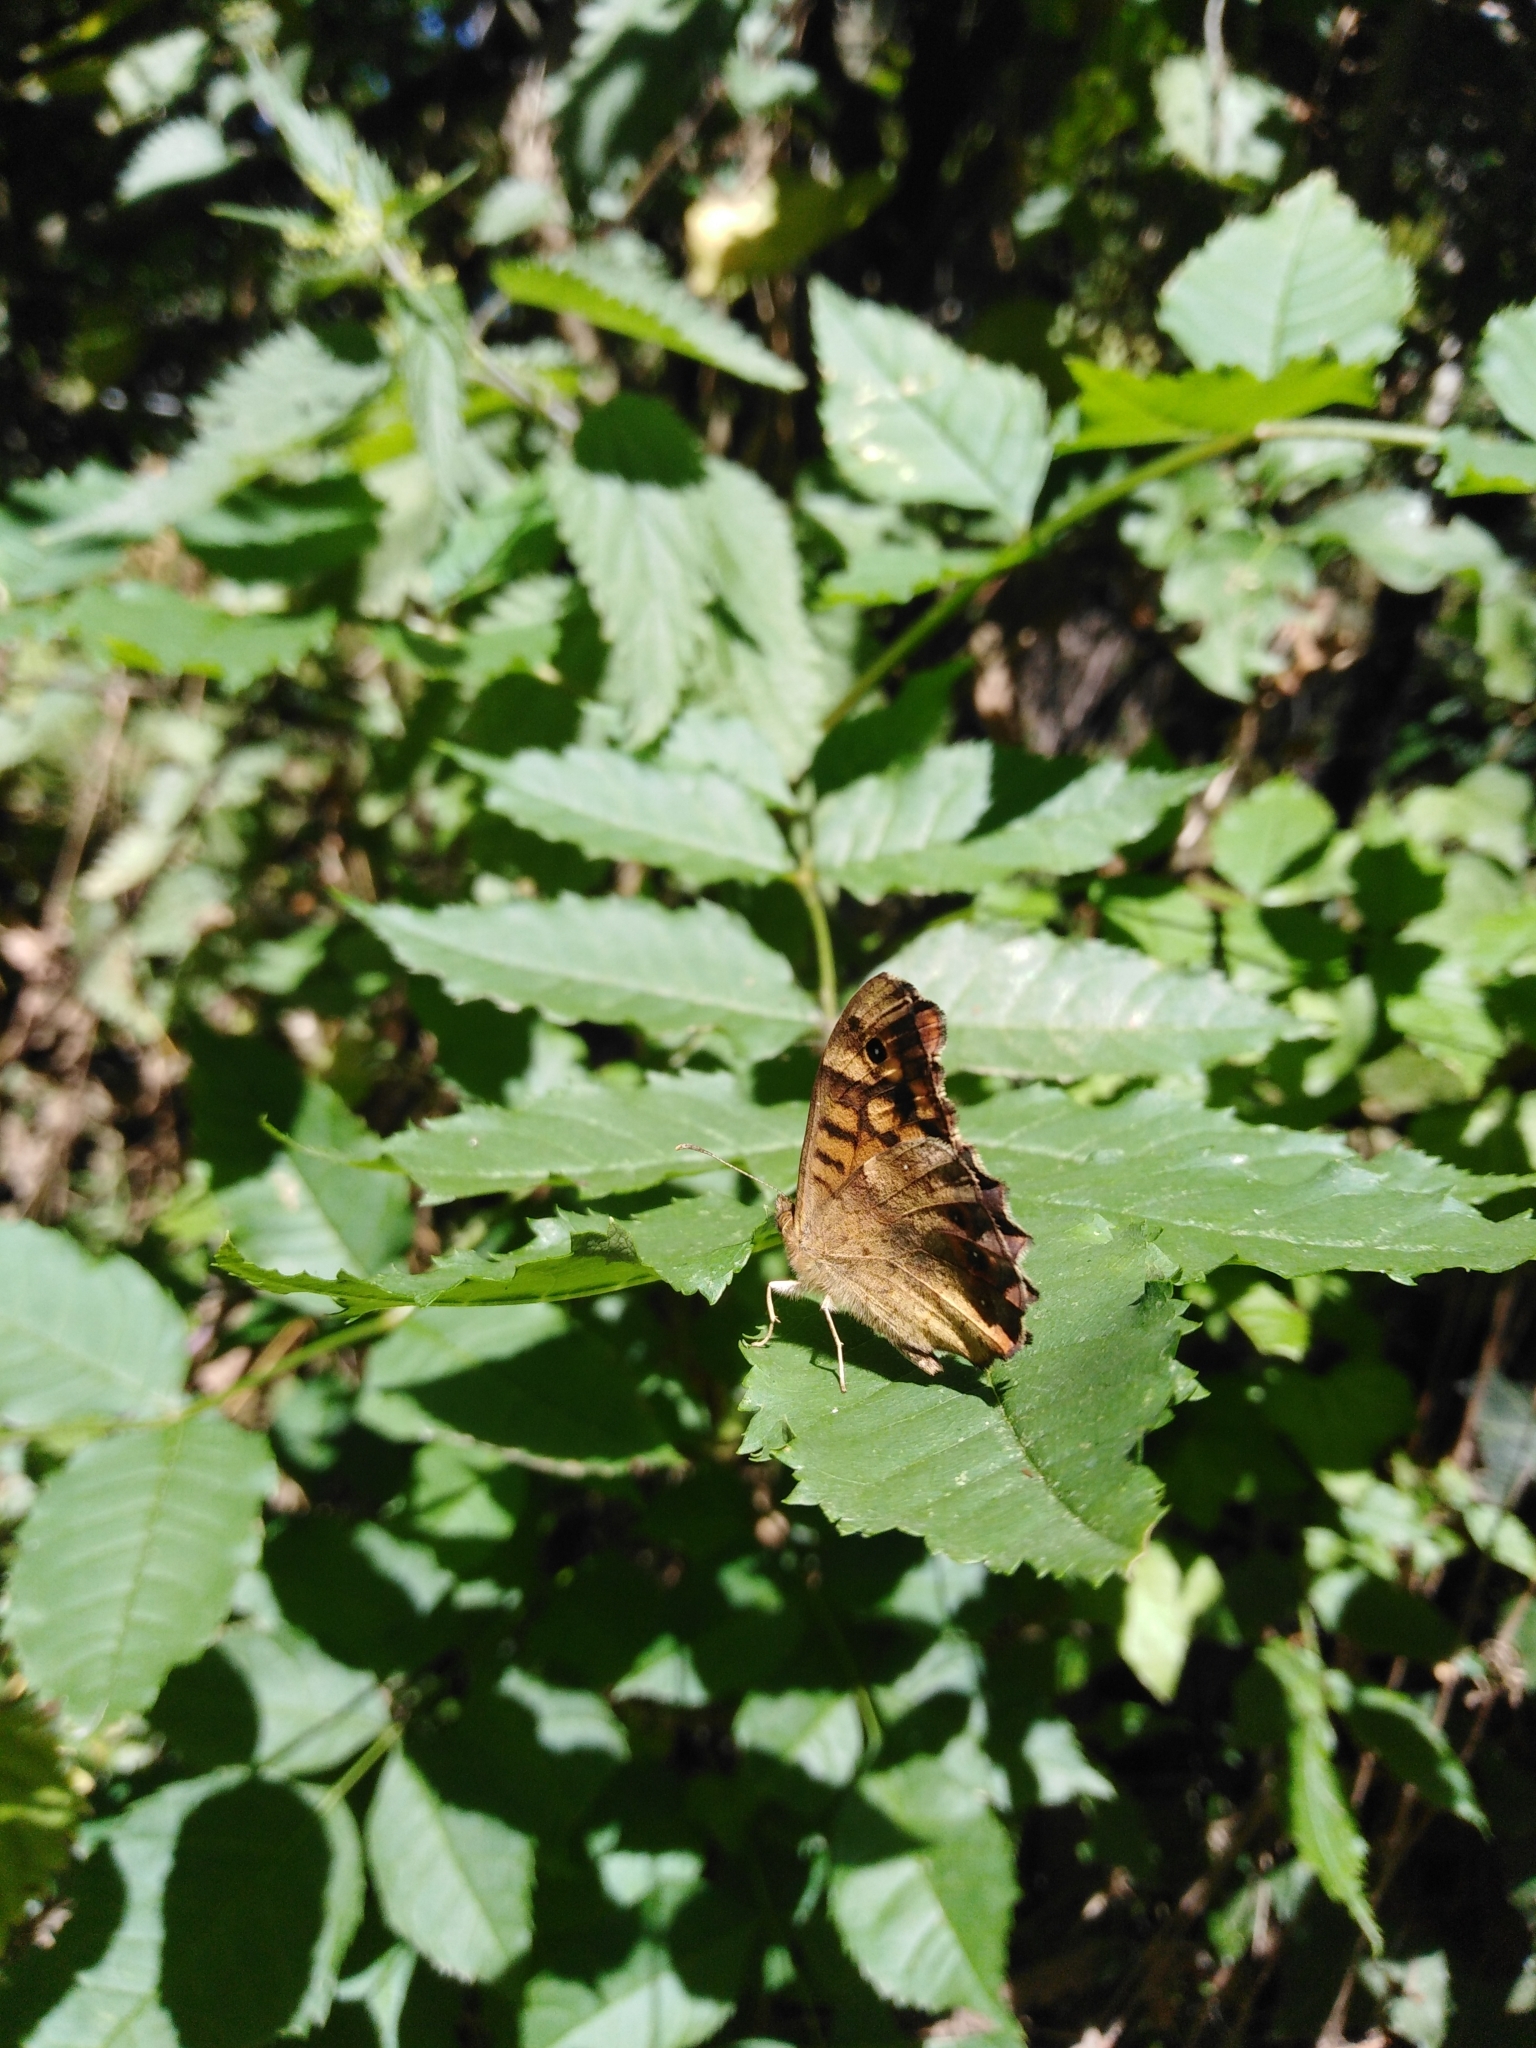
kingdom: Animalia
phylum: Arthropoda
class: Insecta
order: Lepidoptera
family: Nymphalidae
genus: Pararge
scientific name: Pararge aegeria
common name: Speckled wood
